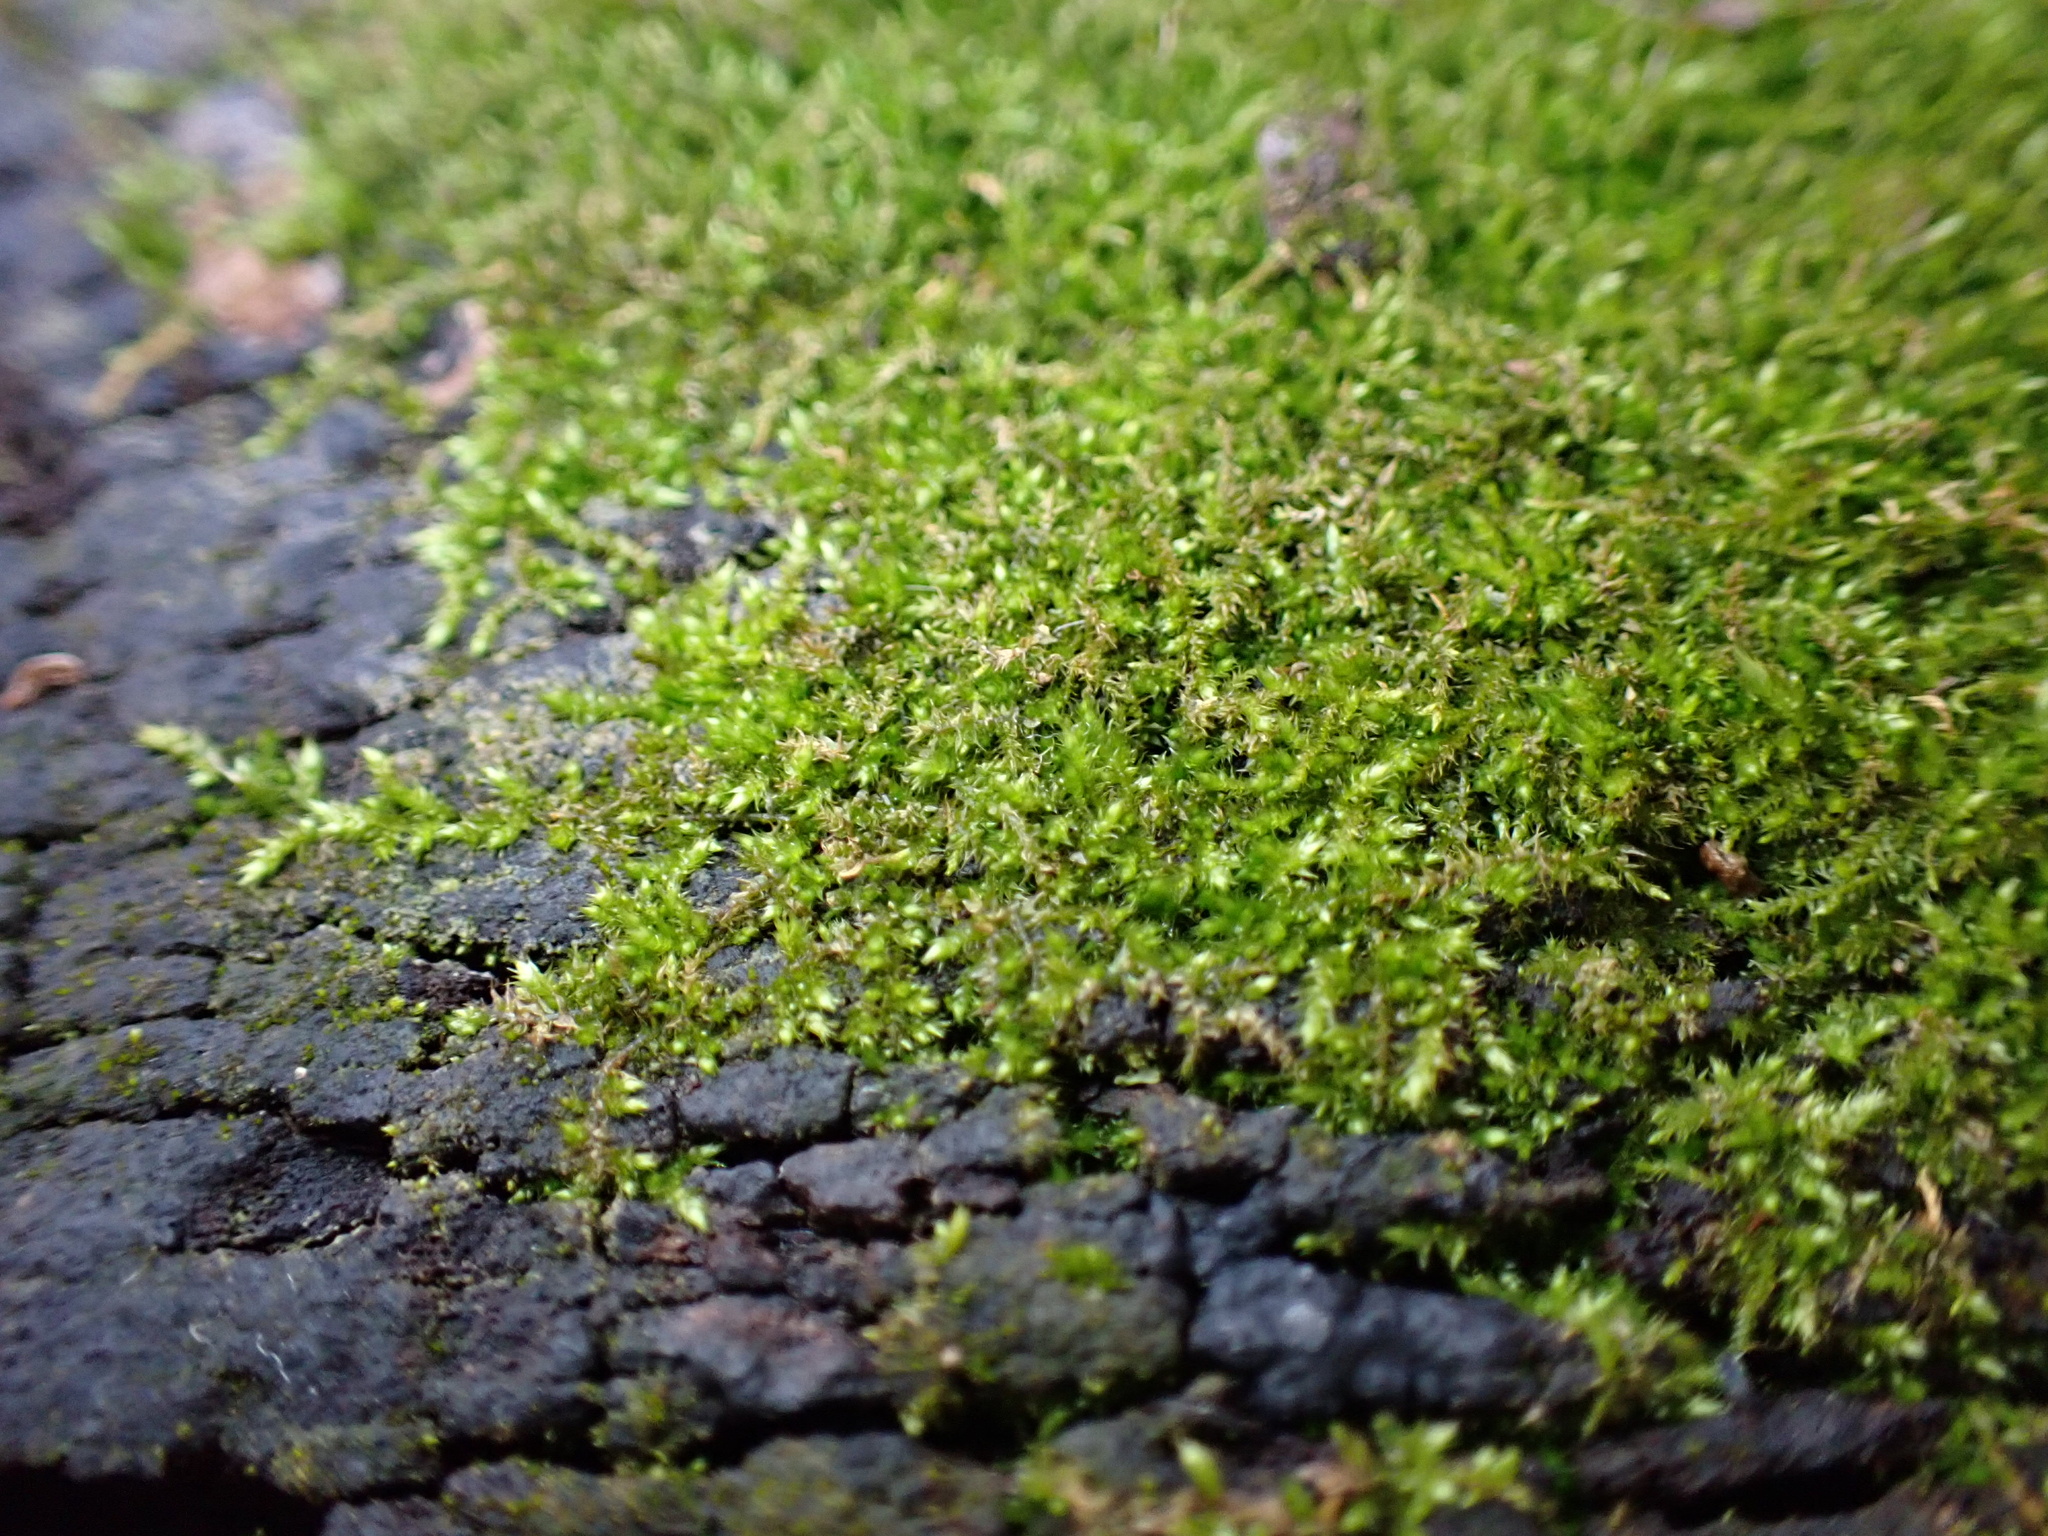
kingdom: Plantae
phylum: Bryophyta
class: Bryopsida
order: Hypnales
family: Pylaisiadelphaceae
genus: Platygyrium
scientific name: Platygyrium repens
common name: Flat-brocade moss
